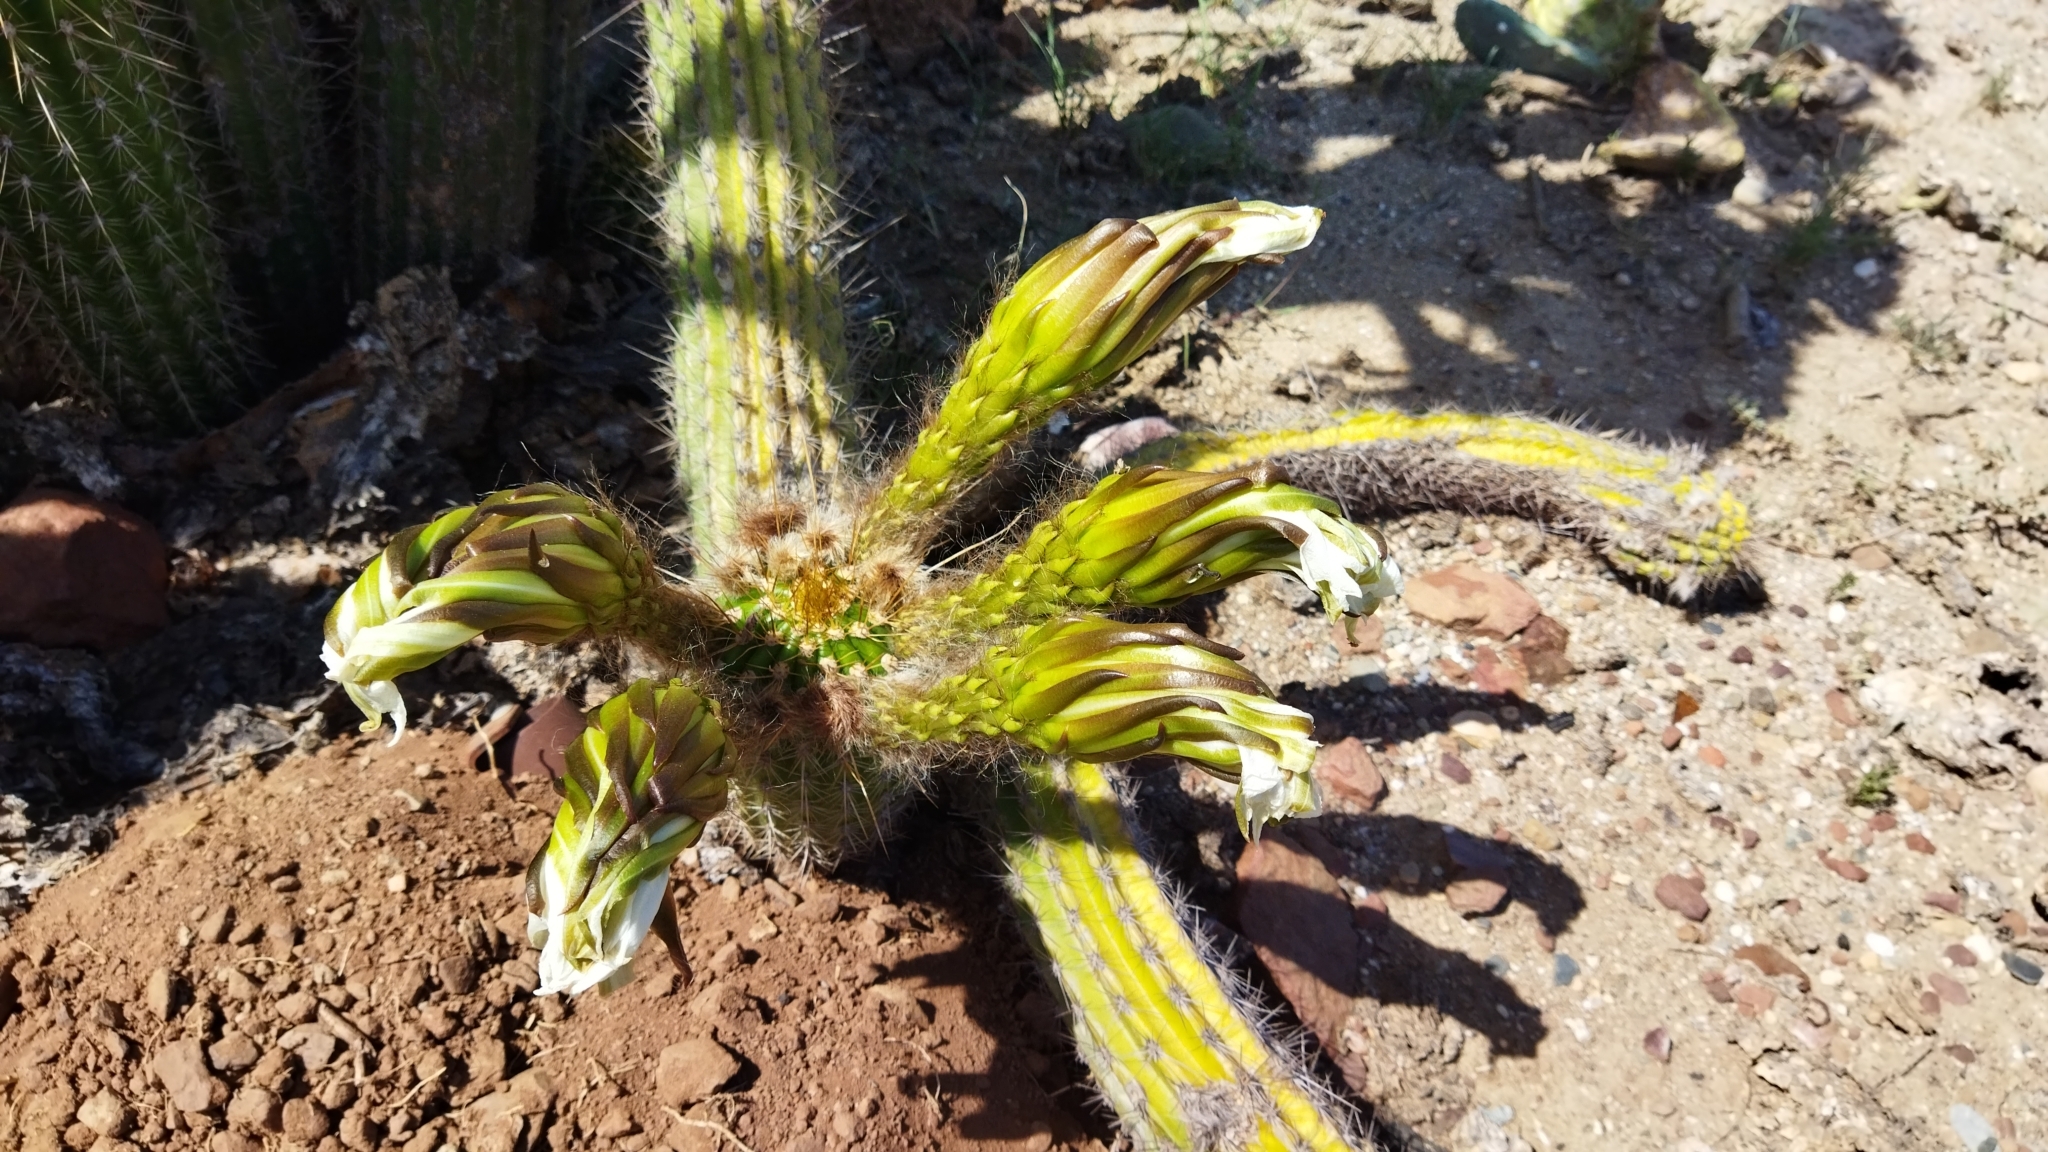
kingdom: Plantae
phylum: Tracheophyta
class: Magnoliopsida
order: Caryophyllales
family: Cactaceae
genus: Soehrensia
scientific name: Soehrensia spachiana
